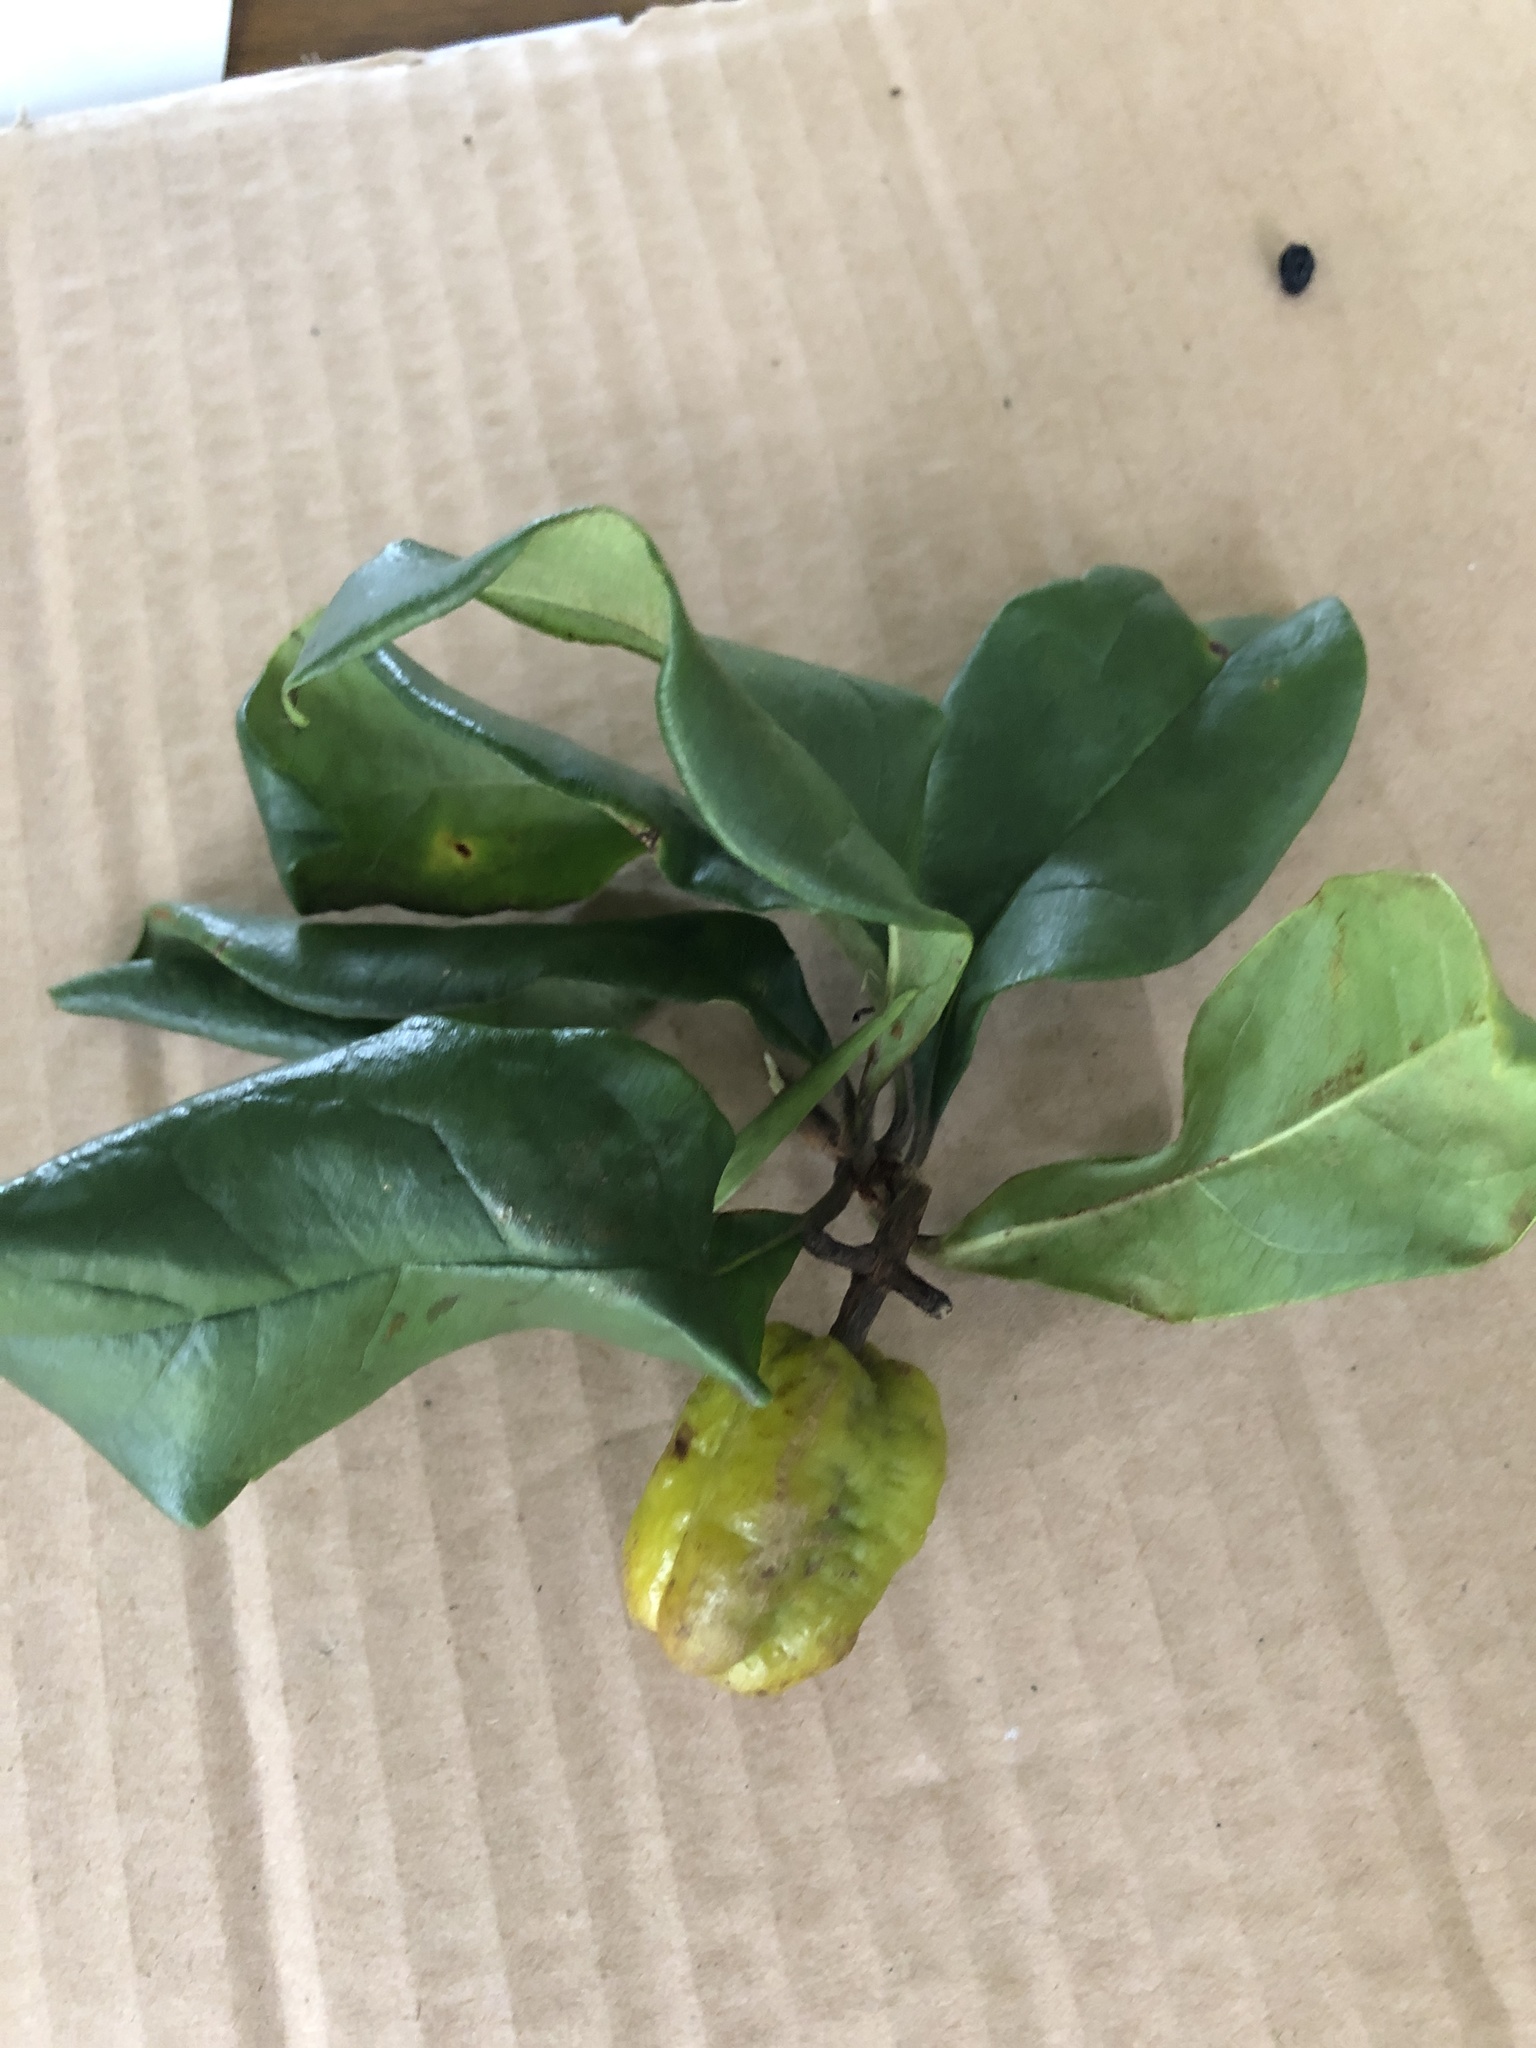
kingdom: Plantae
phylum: Tracheophyta
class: Magnoliopsida
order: Apiales
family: Pittosporaceae
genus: Pittosporum
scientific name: Pittosporum revolutum
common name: Brisbane-laurel
